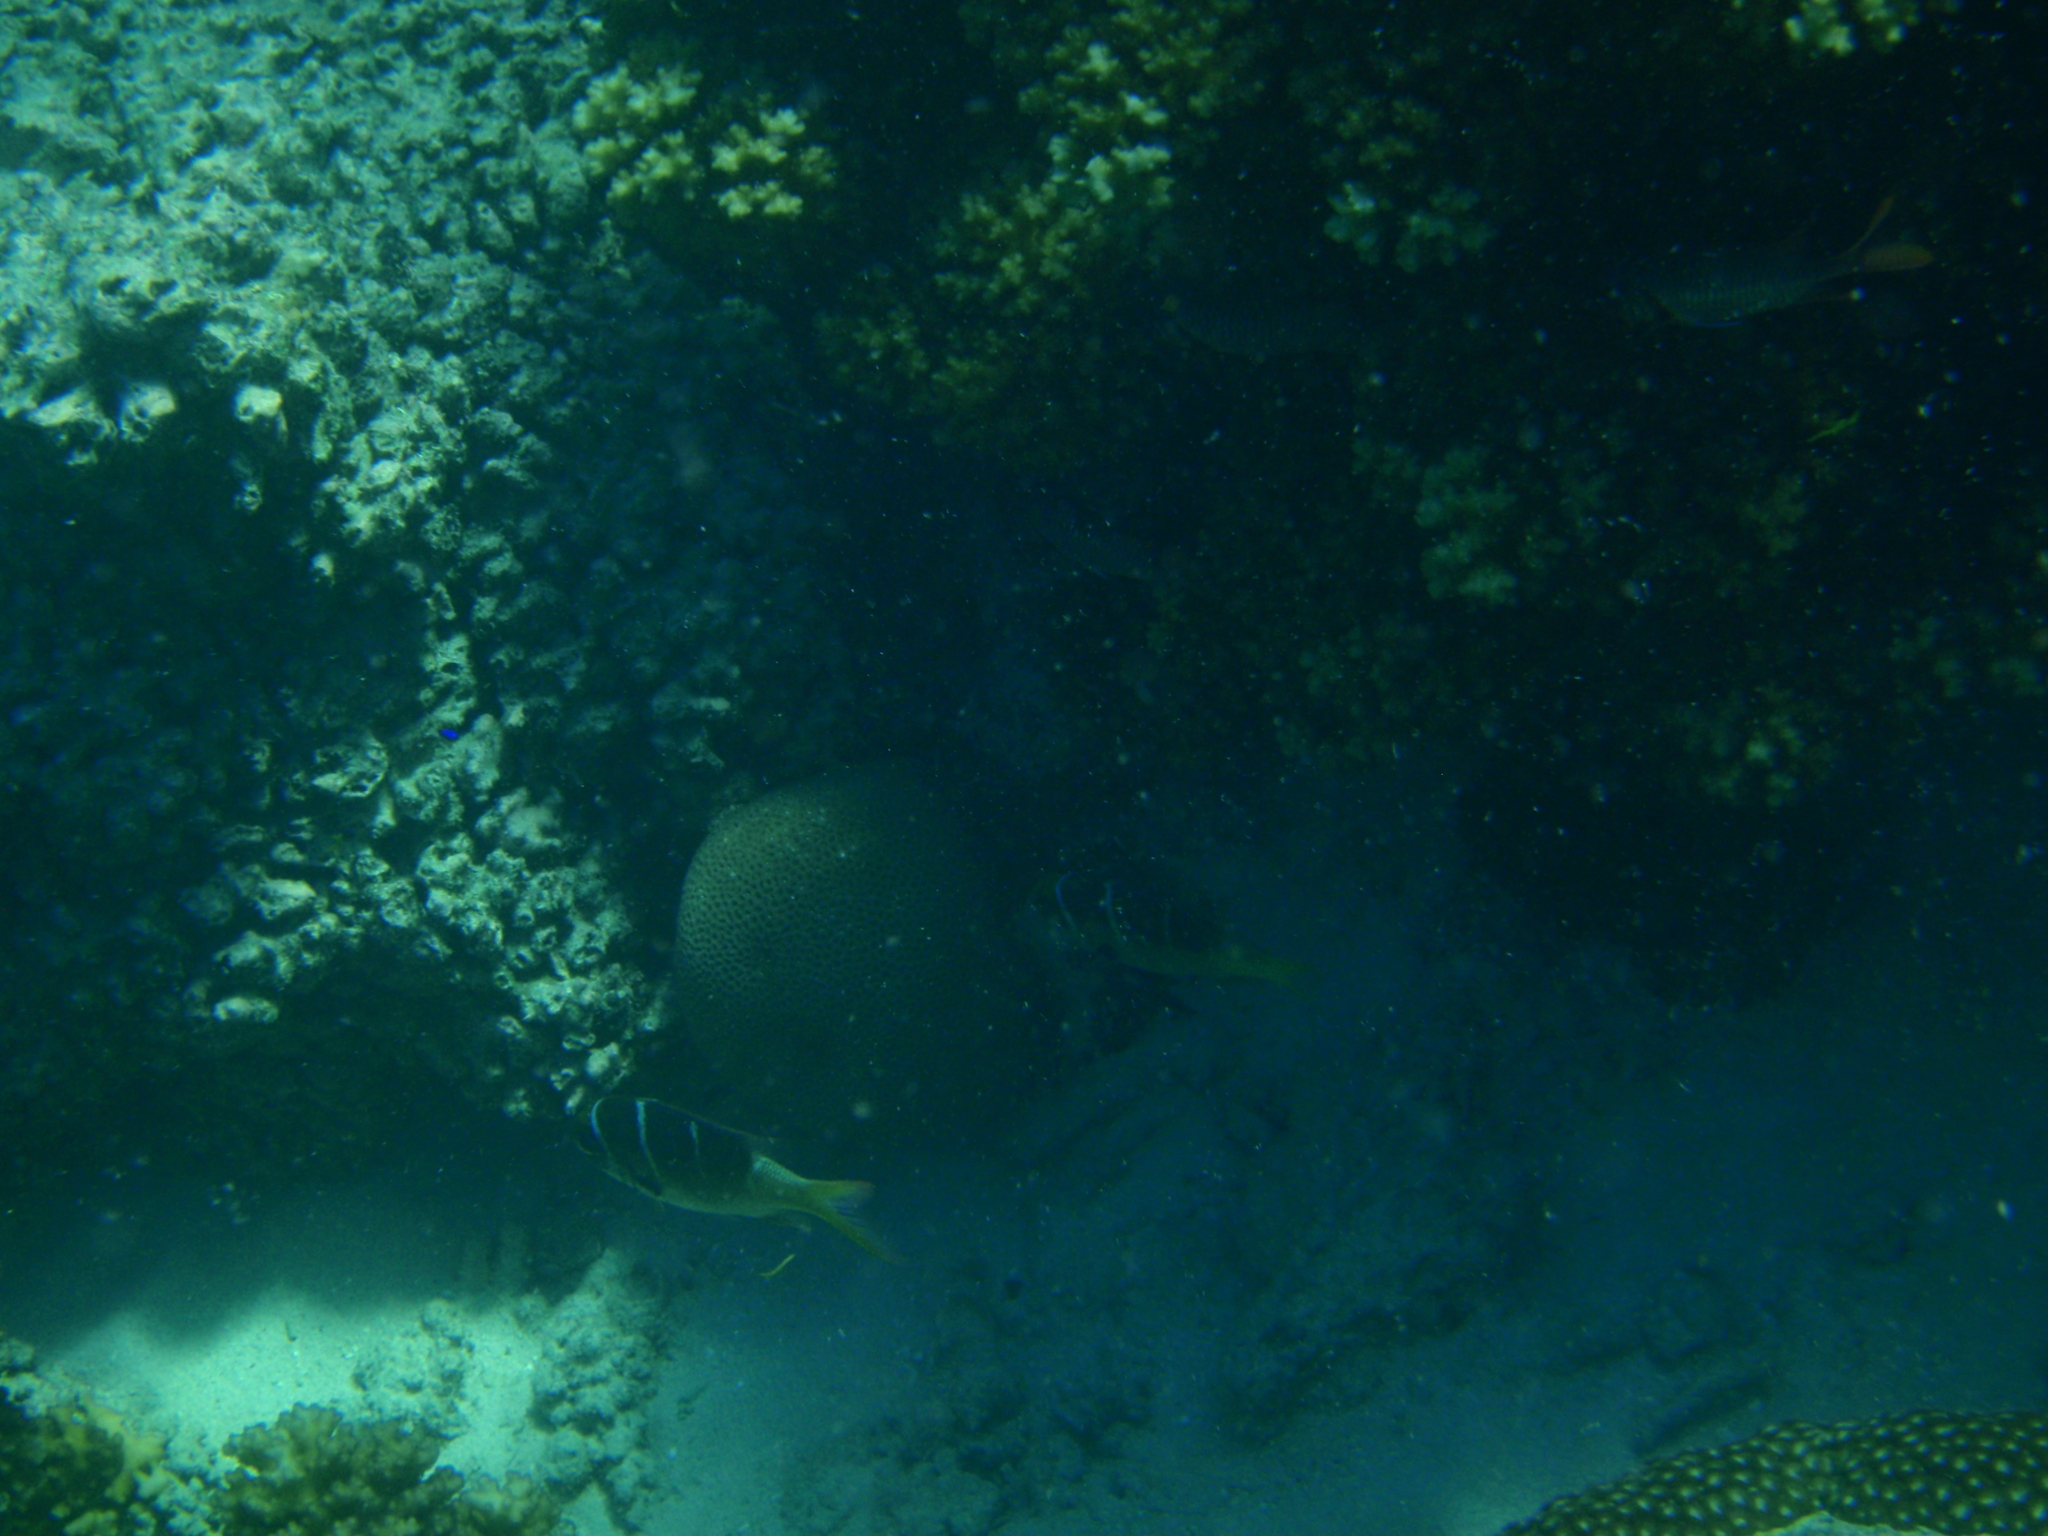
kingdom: Animalia
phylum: Chordata
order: Perciformes
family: Lethrinidae
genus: Monotaxis
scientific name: Monotaxis heterodon
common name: Redfin emperor
